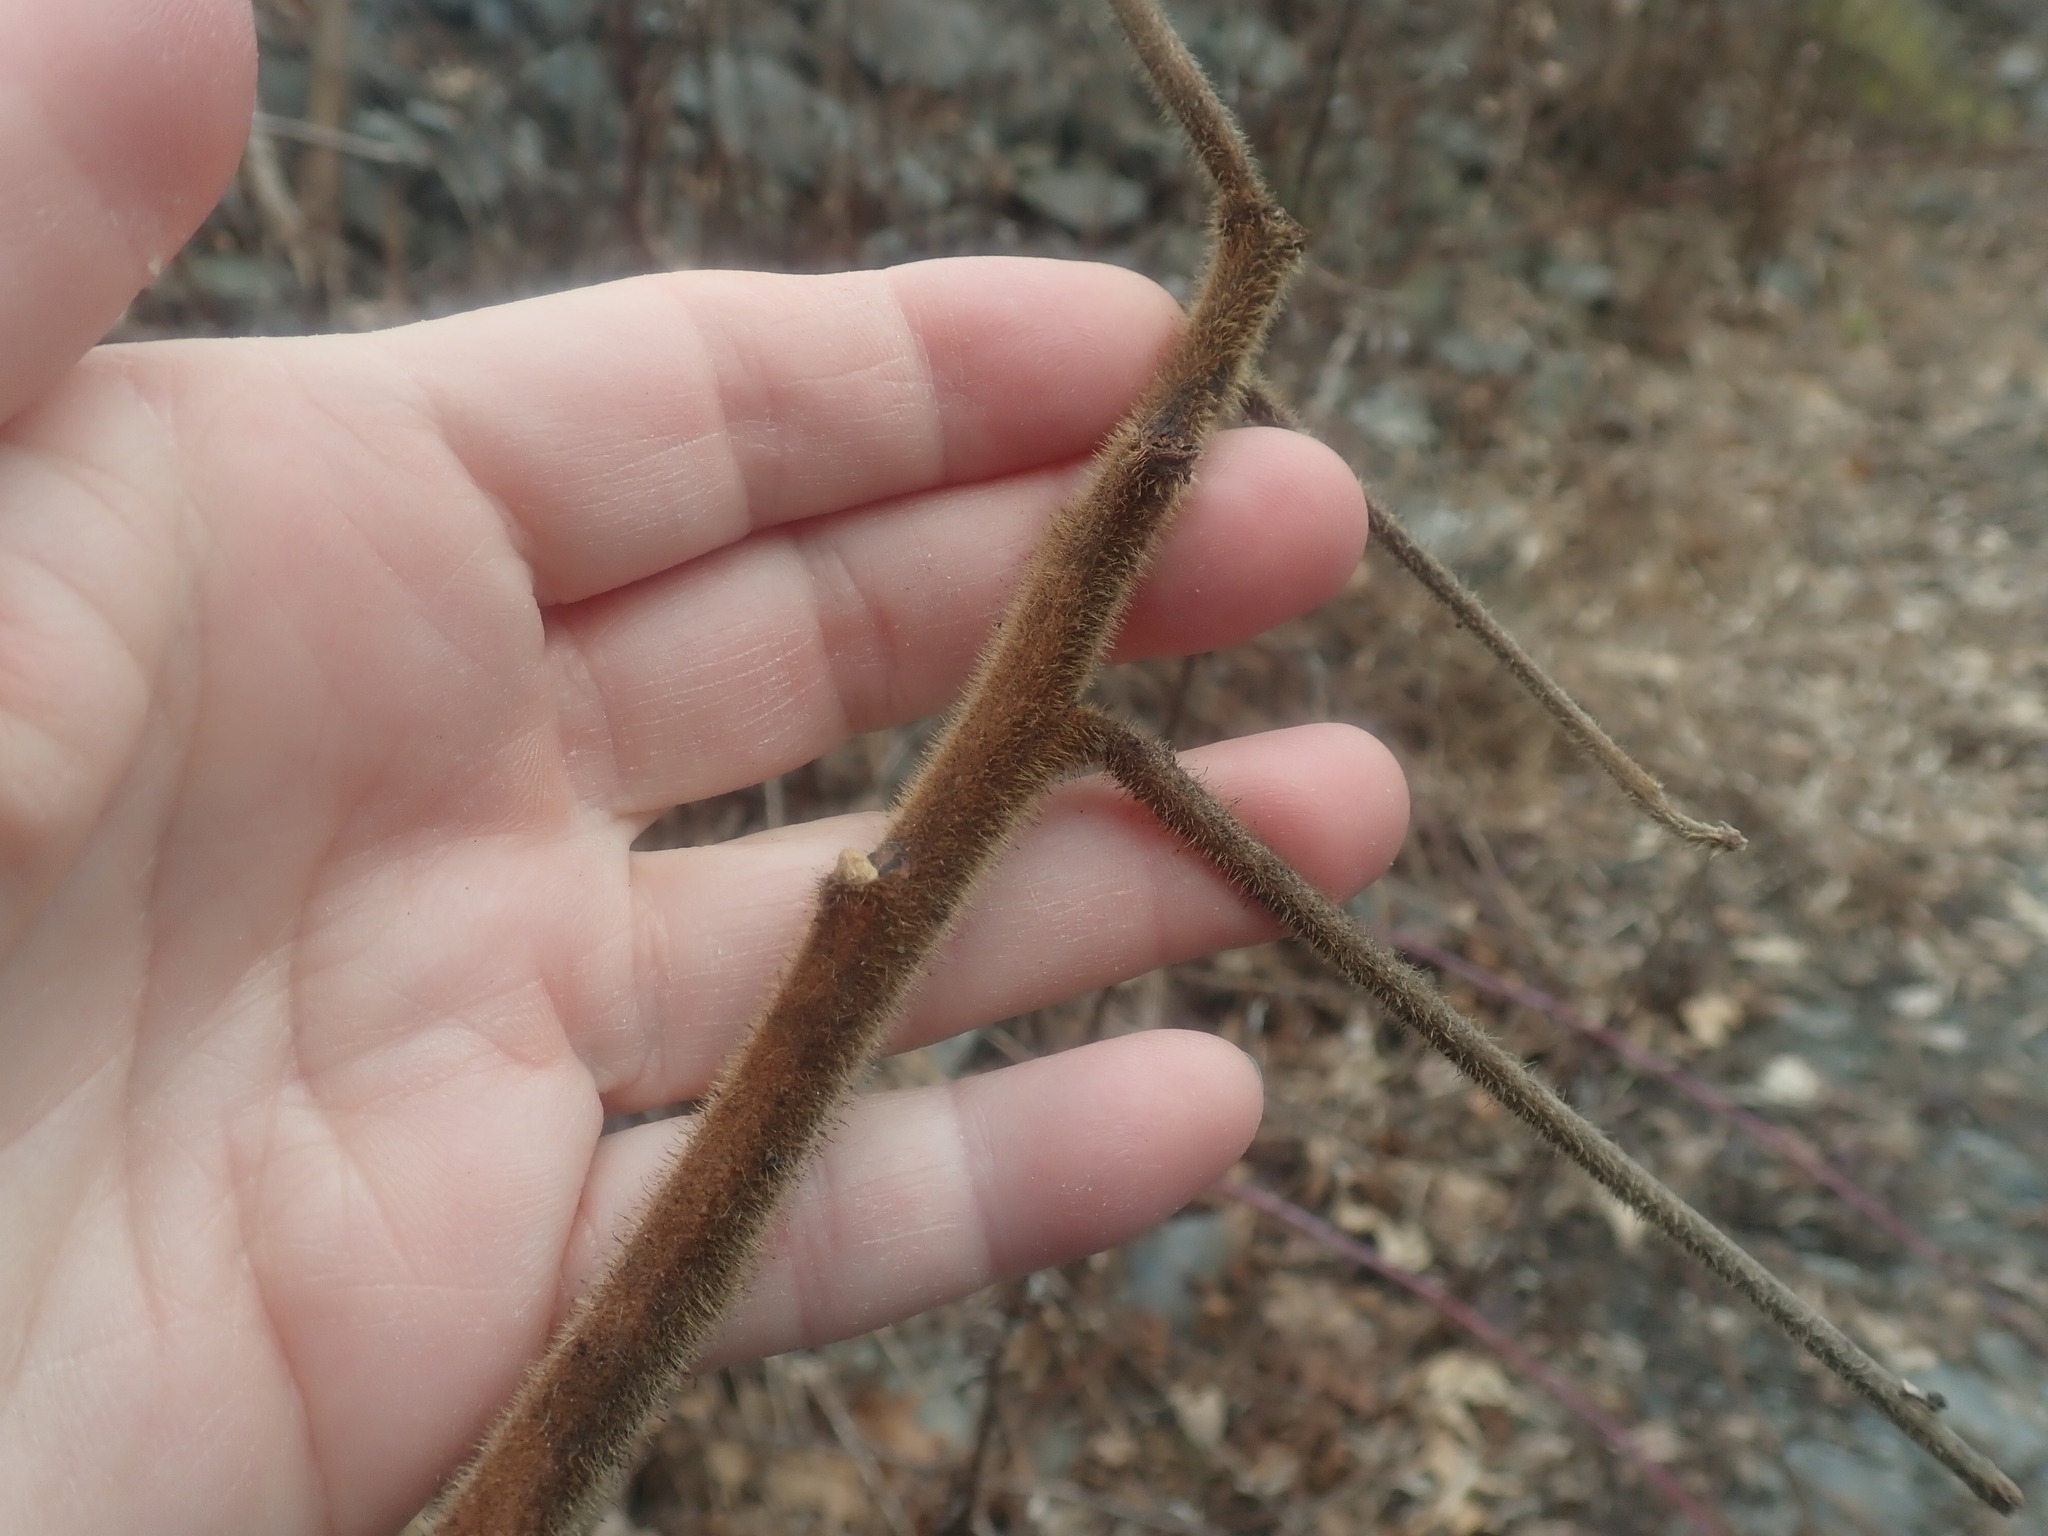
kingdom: Plantae
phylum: Tracheophyta
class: Magnoliopsida
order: Sapindales
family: Anacardiaceae
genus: Rhus
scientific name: Rhus typhina
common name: Staghorn sumac
